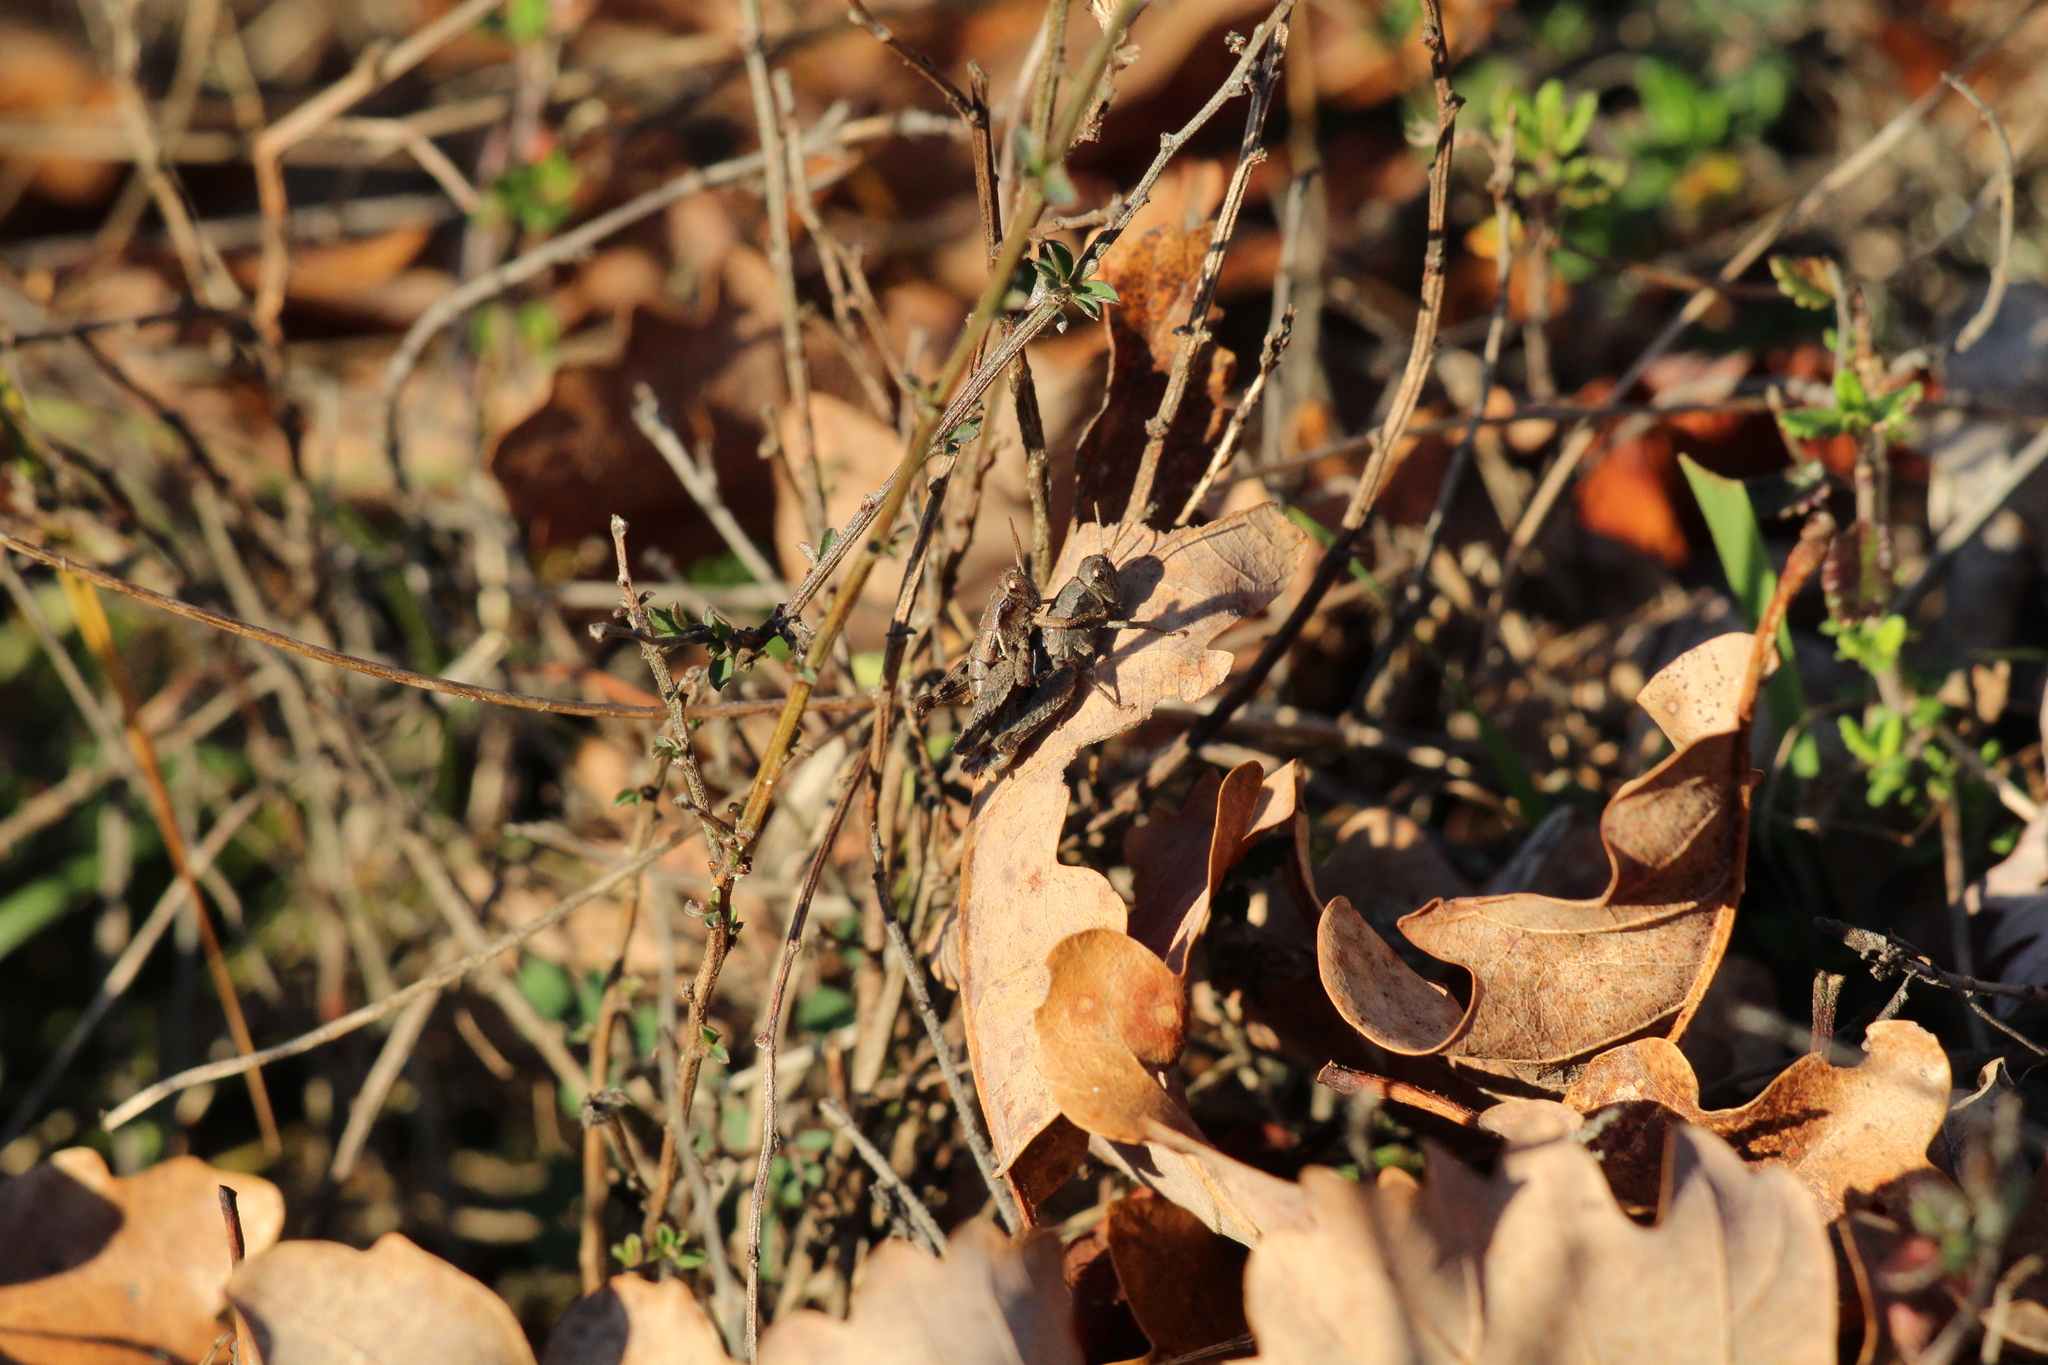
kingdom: Animalia
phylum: Arthropoda
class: Insecta
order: Orthoptera
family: Acrididae
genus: Pezotettix
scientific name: Pezotettix giornae
